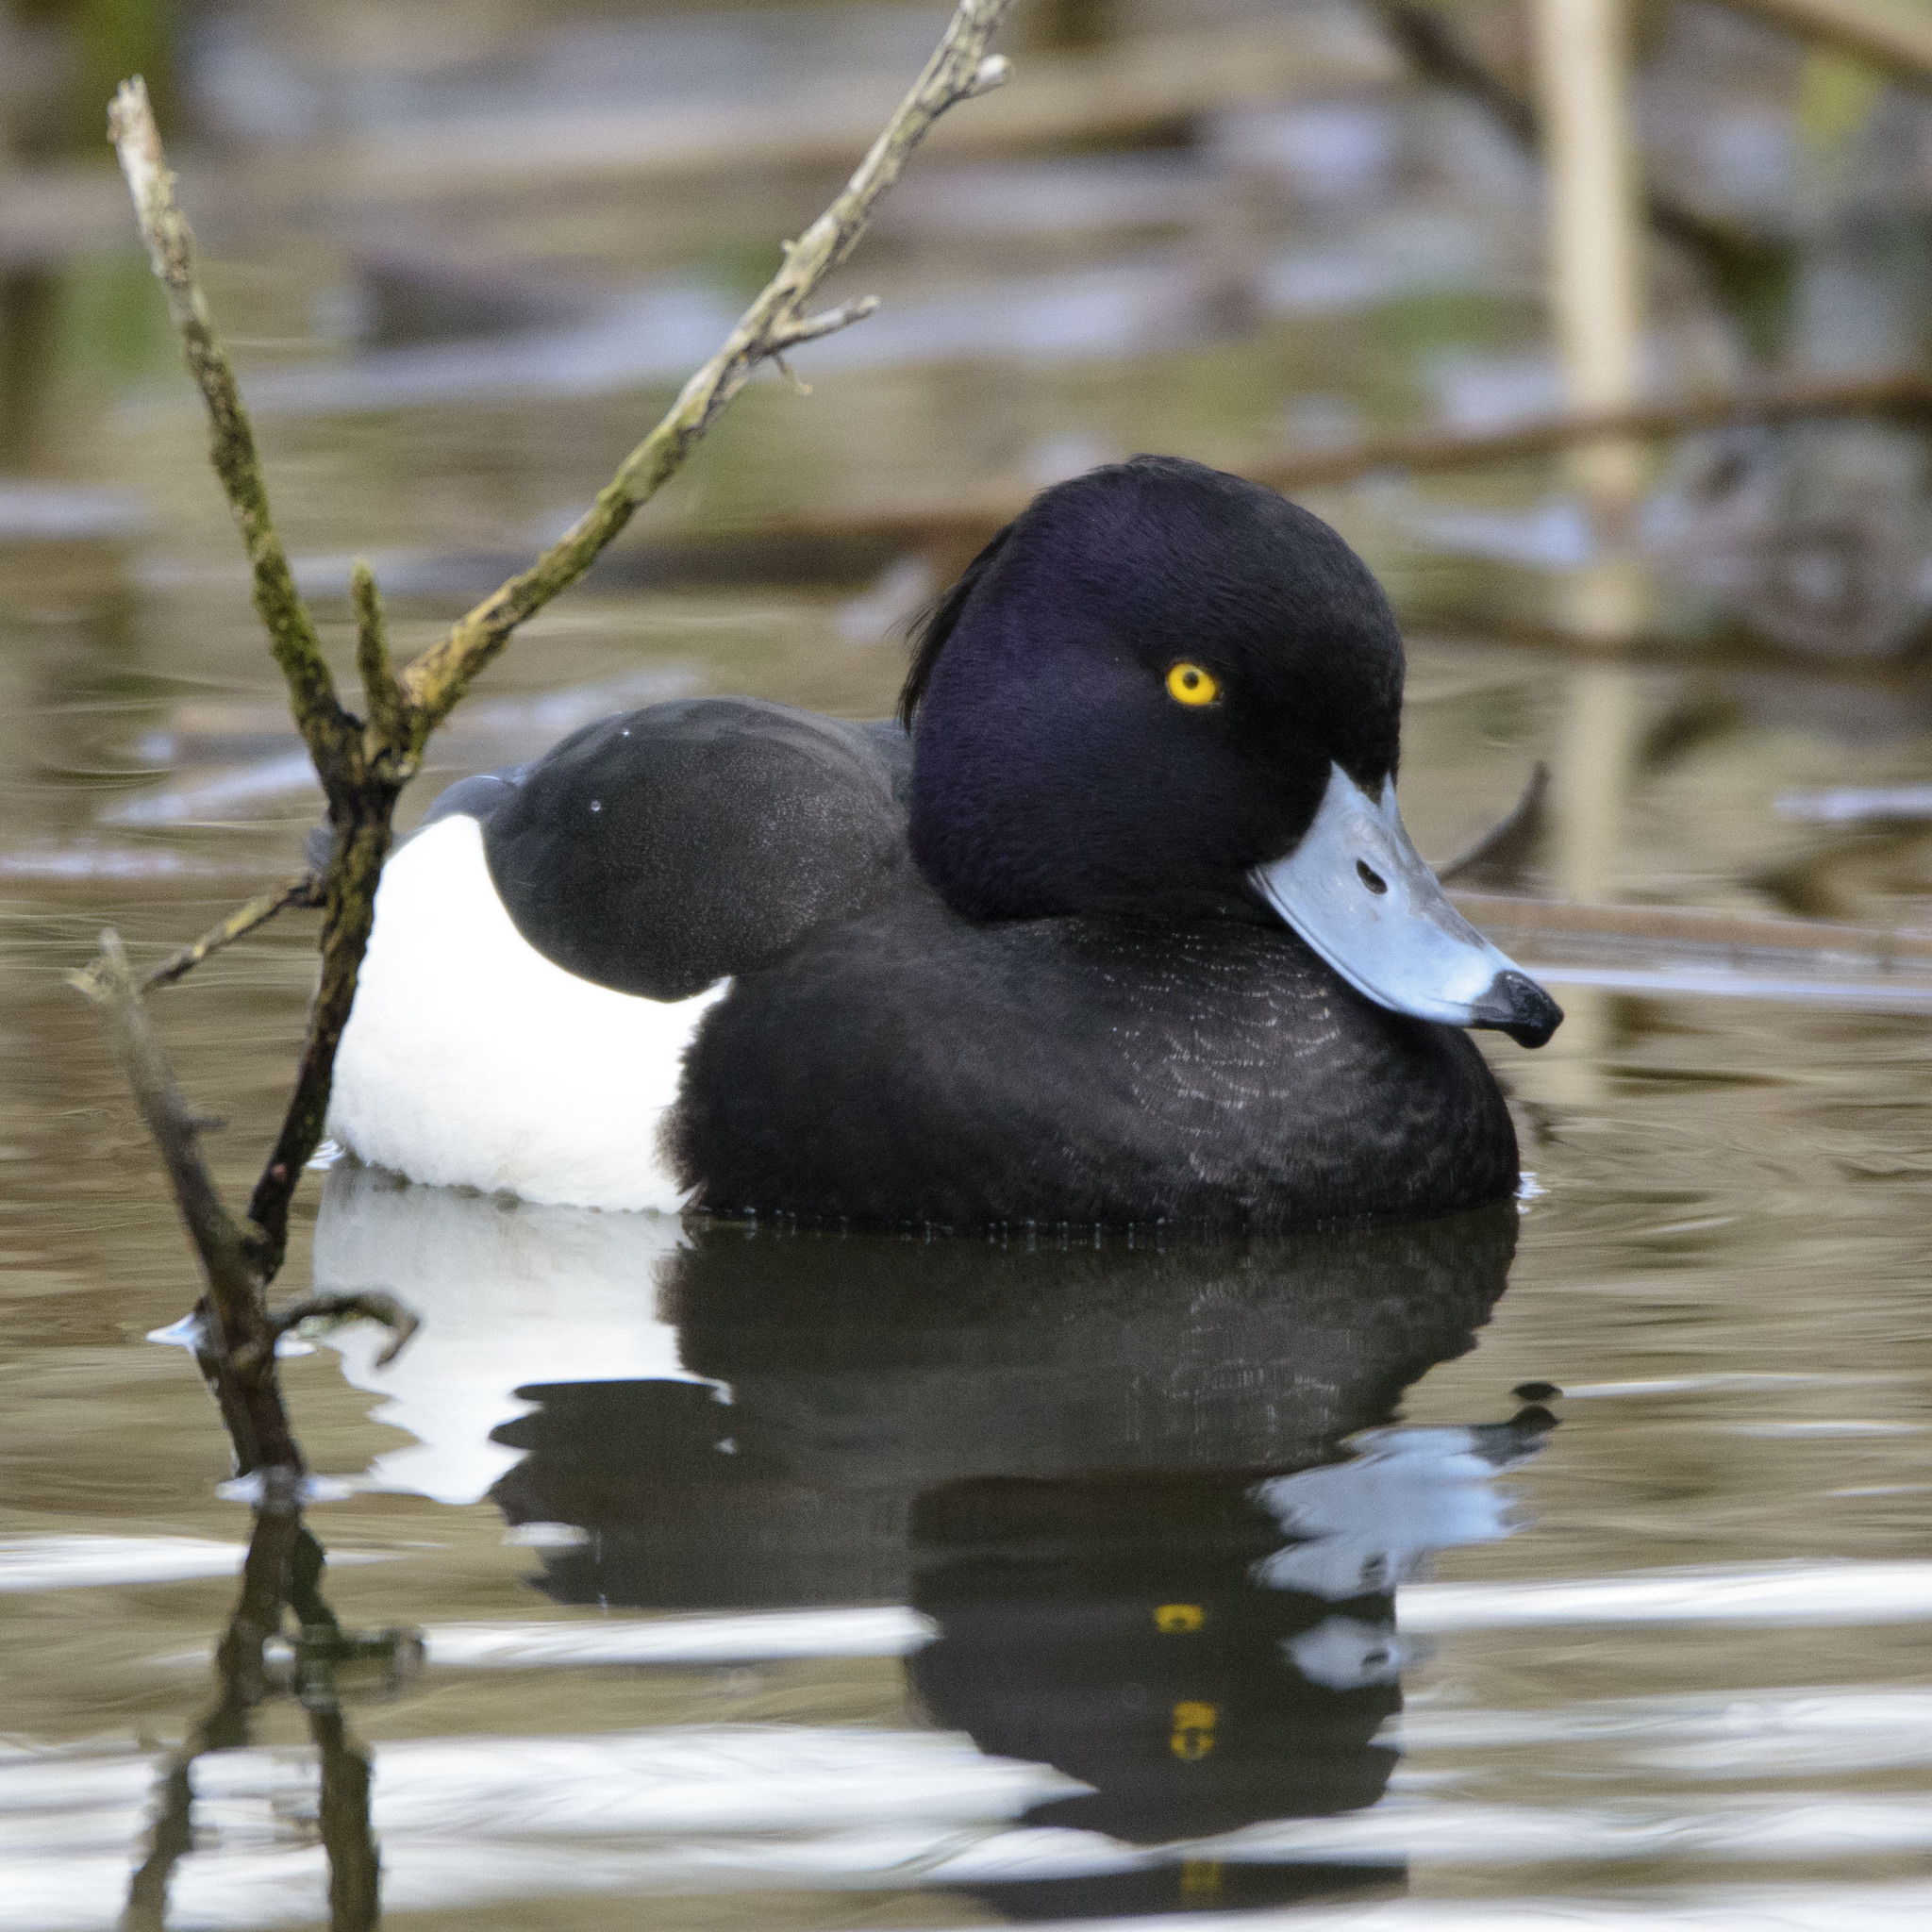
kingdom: Animalia
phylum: Chordata
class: Aves
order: Anseriformes
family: Anatidae
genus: Aythya
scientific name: Aythya fuligula
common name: Tufted duck
